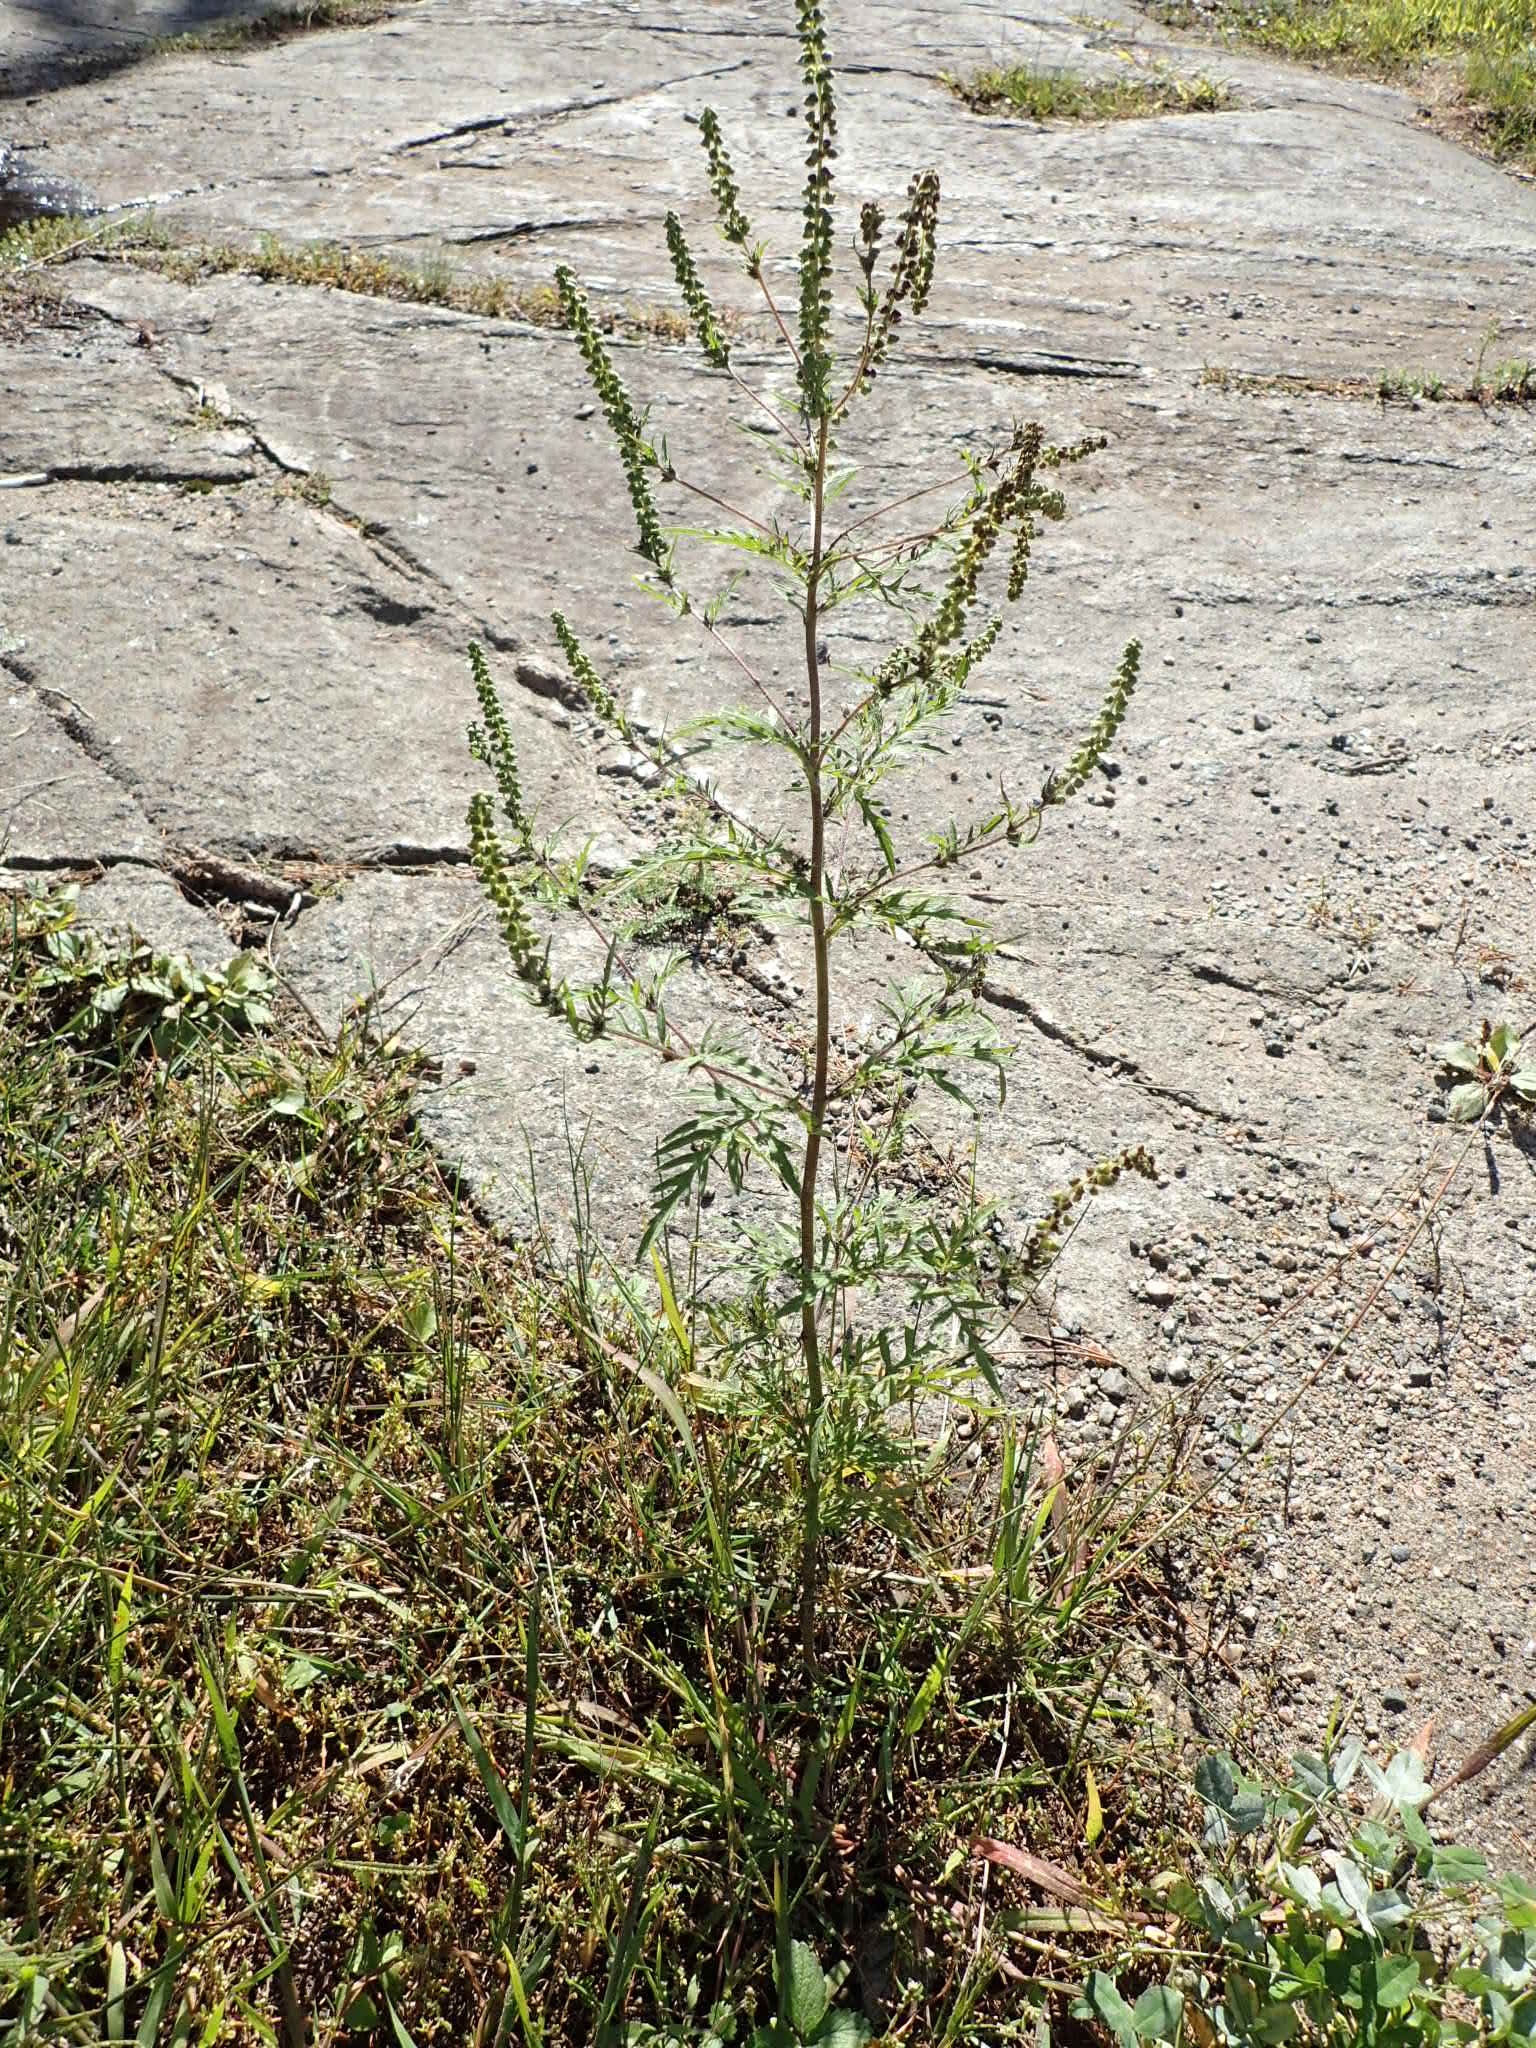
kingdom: Plantae
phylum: Tracheophyta
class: Magnoliopsida
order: Asterales
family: Asteraceae
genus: Ambrosia
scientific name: Ambrosia artemisiifolia
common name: Annual ragweed
